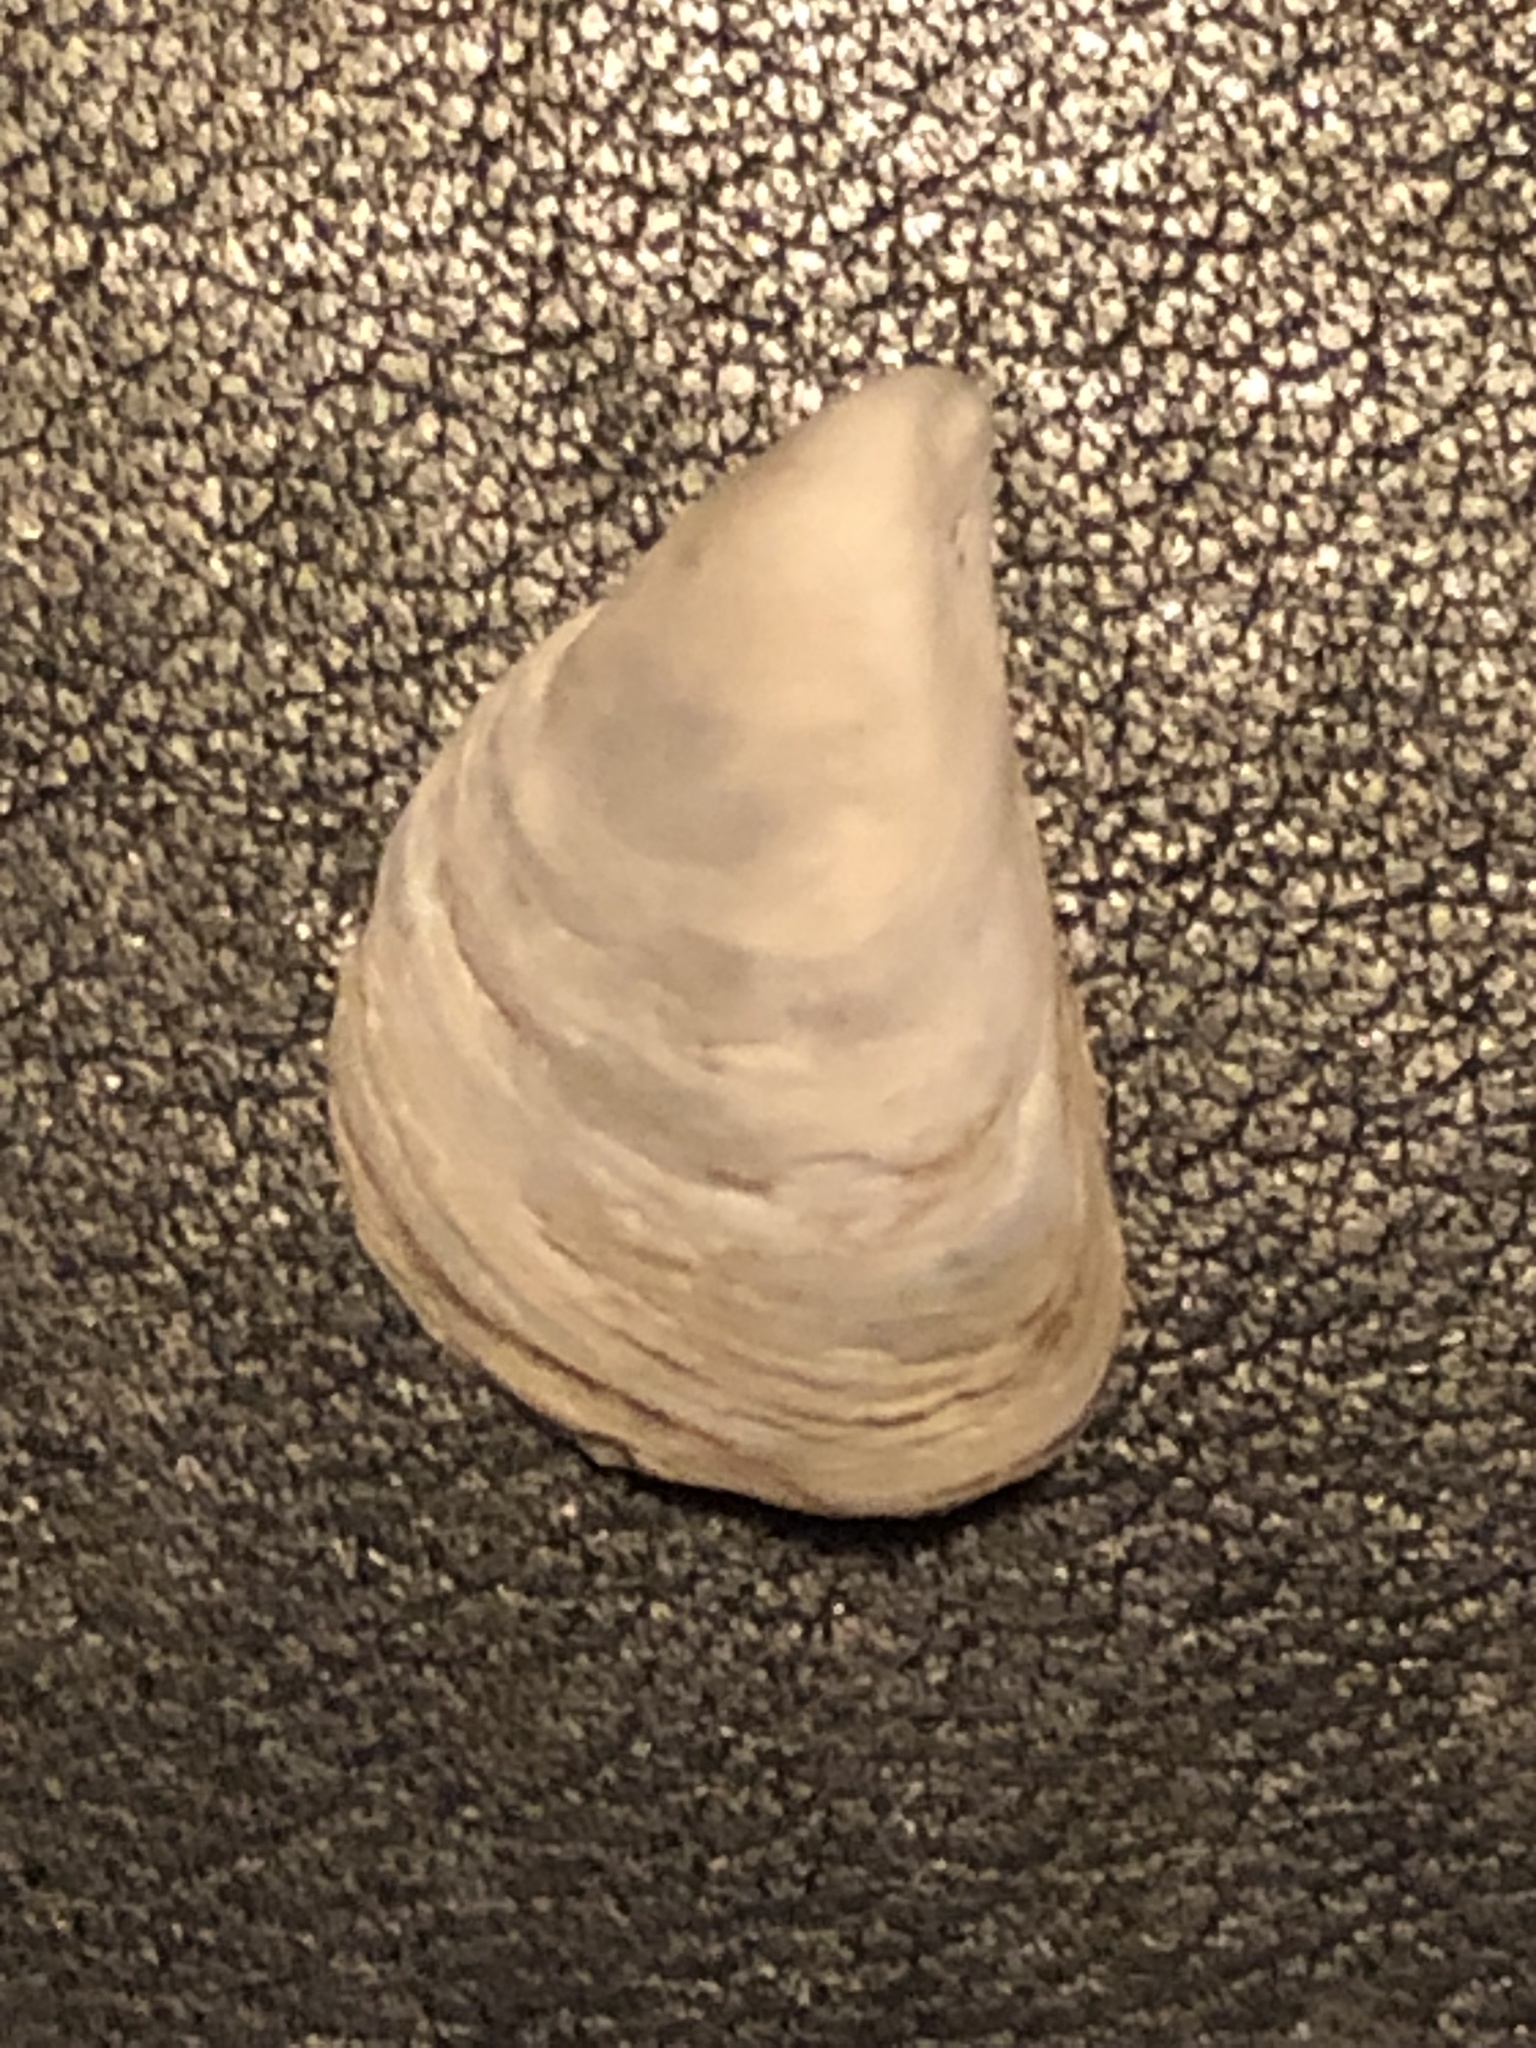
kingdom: Animalia
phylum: Mollusca
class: Bivalvia
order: Myida
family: Dreissenidae
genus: Dreissena
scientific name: Dreissena bugensis
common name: Quagga mussel
